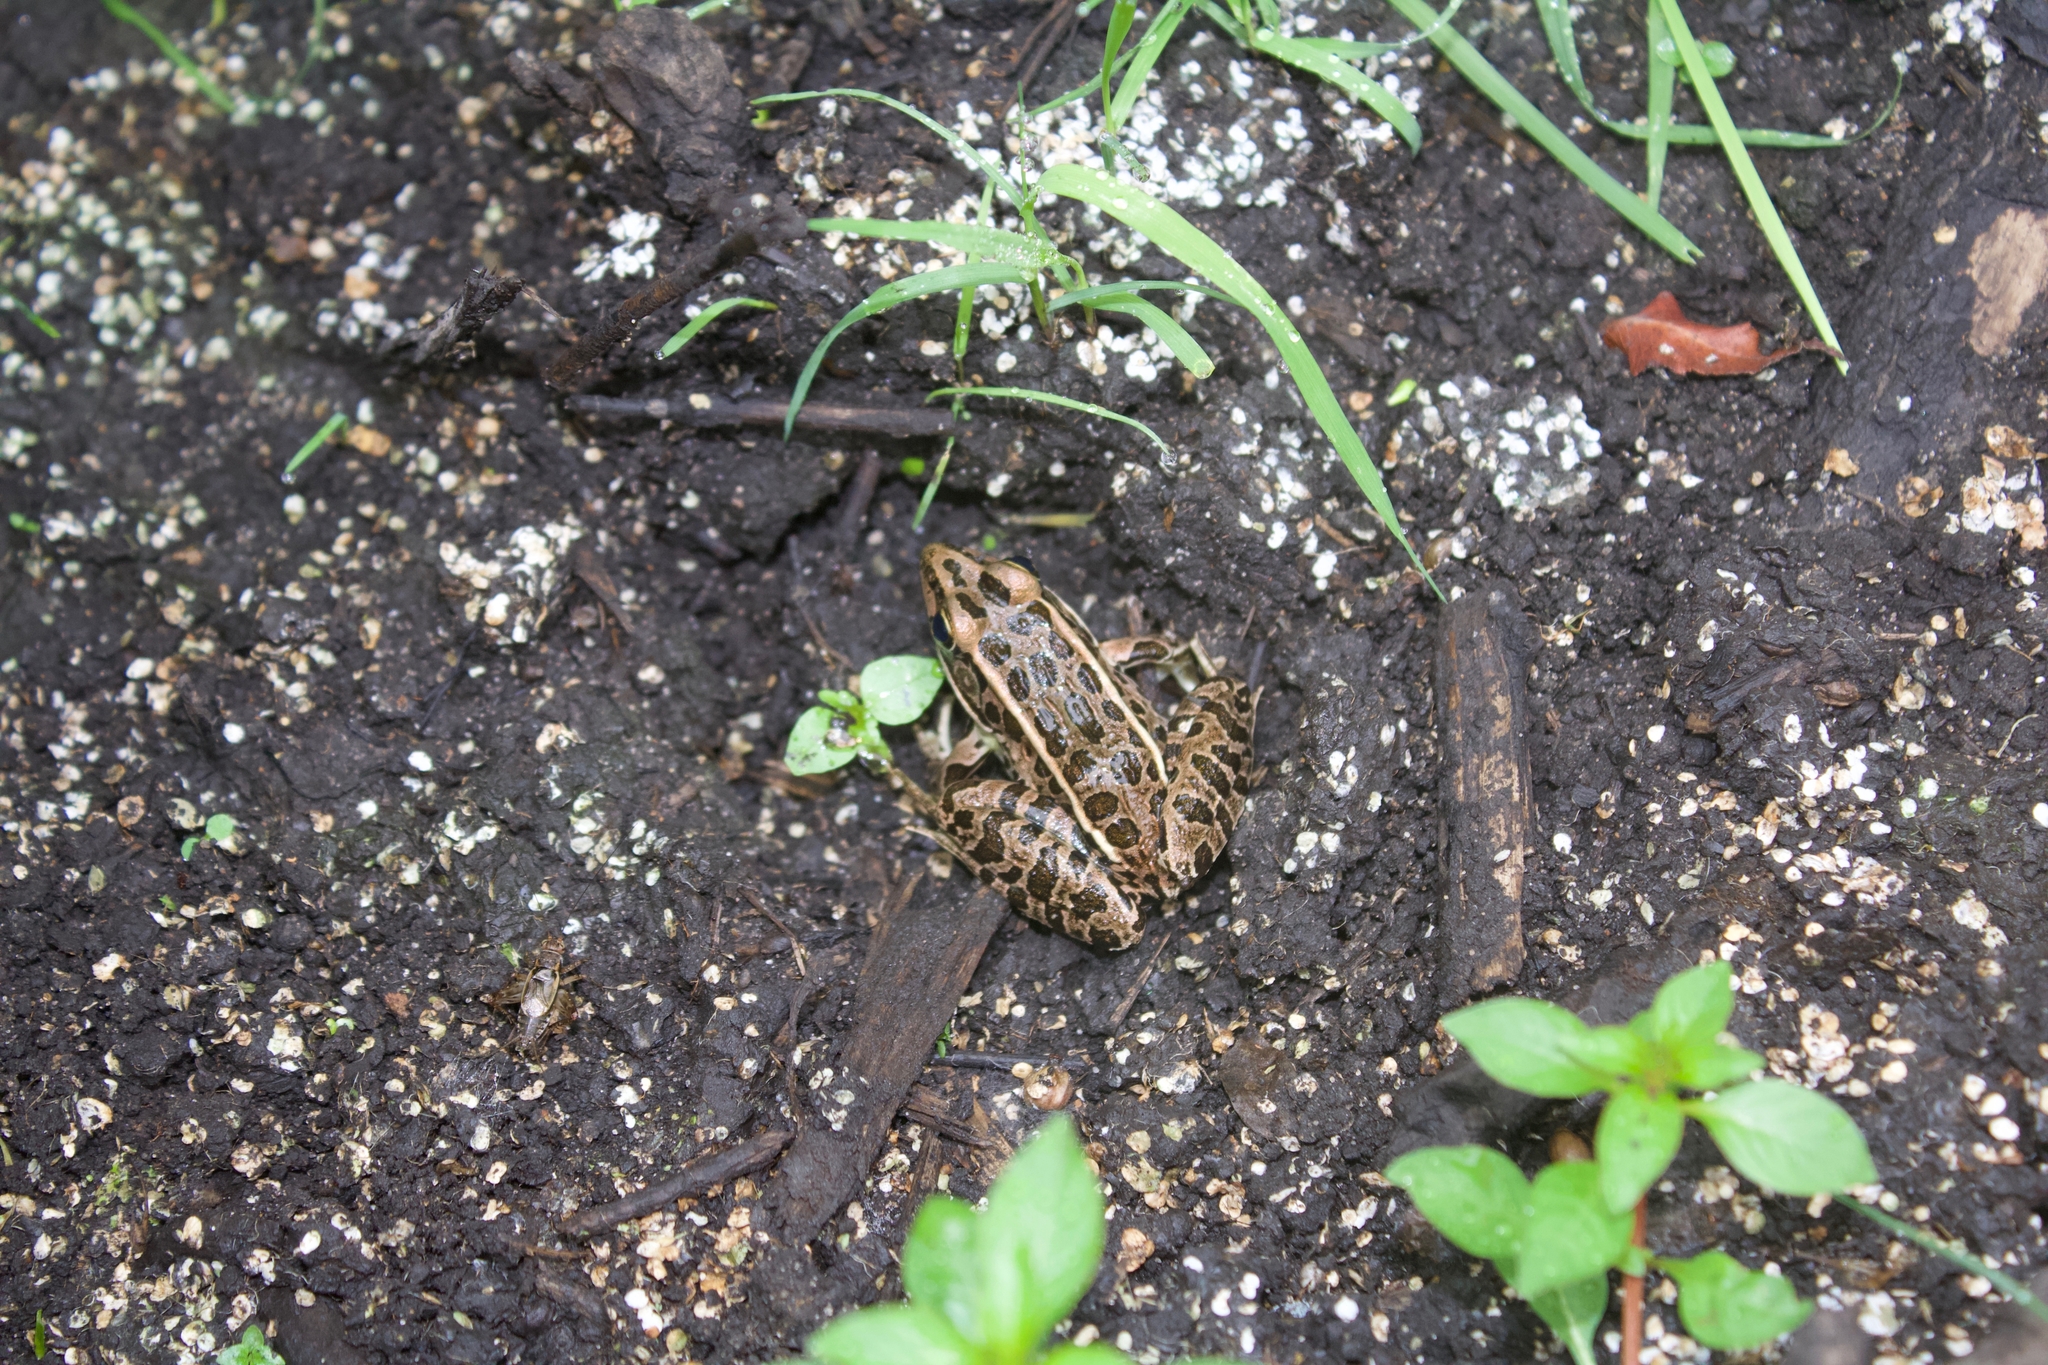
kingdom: Animalia
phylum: Chordata
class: Amphibia
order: Anura
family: Ranidae
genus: Lithobates
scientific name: Lithobates pipiens
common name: Northern leopard frog
